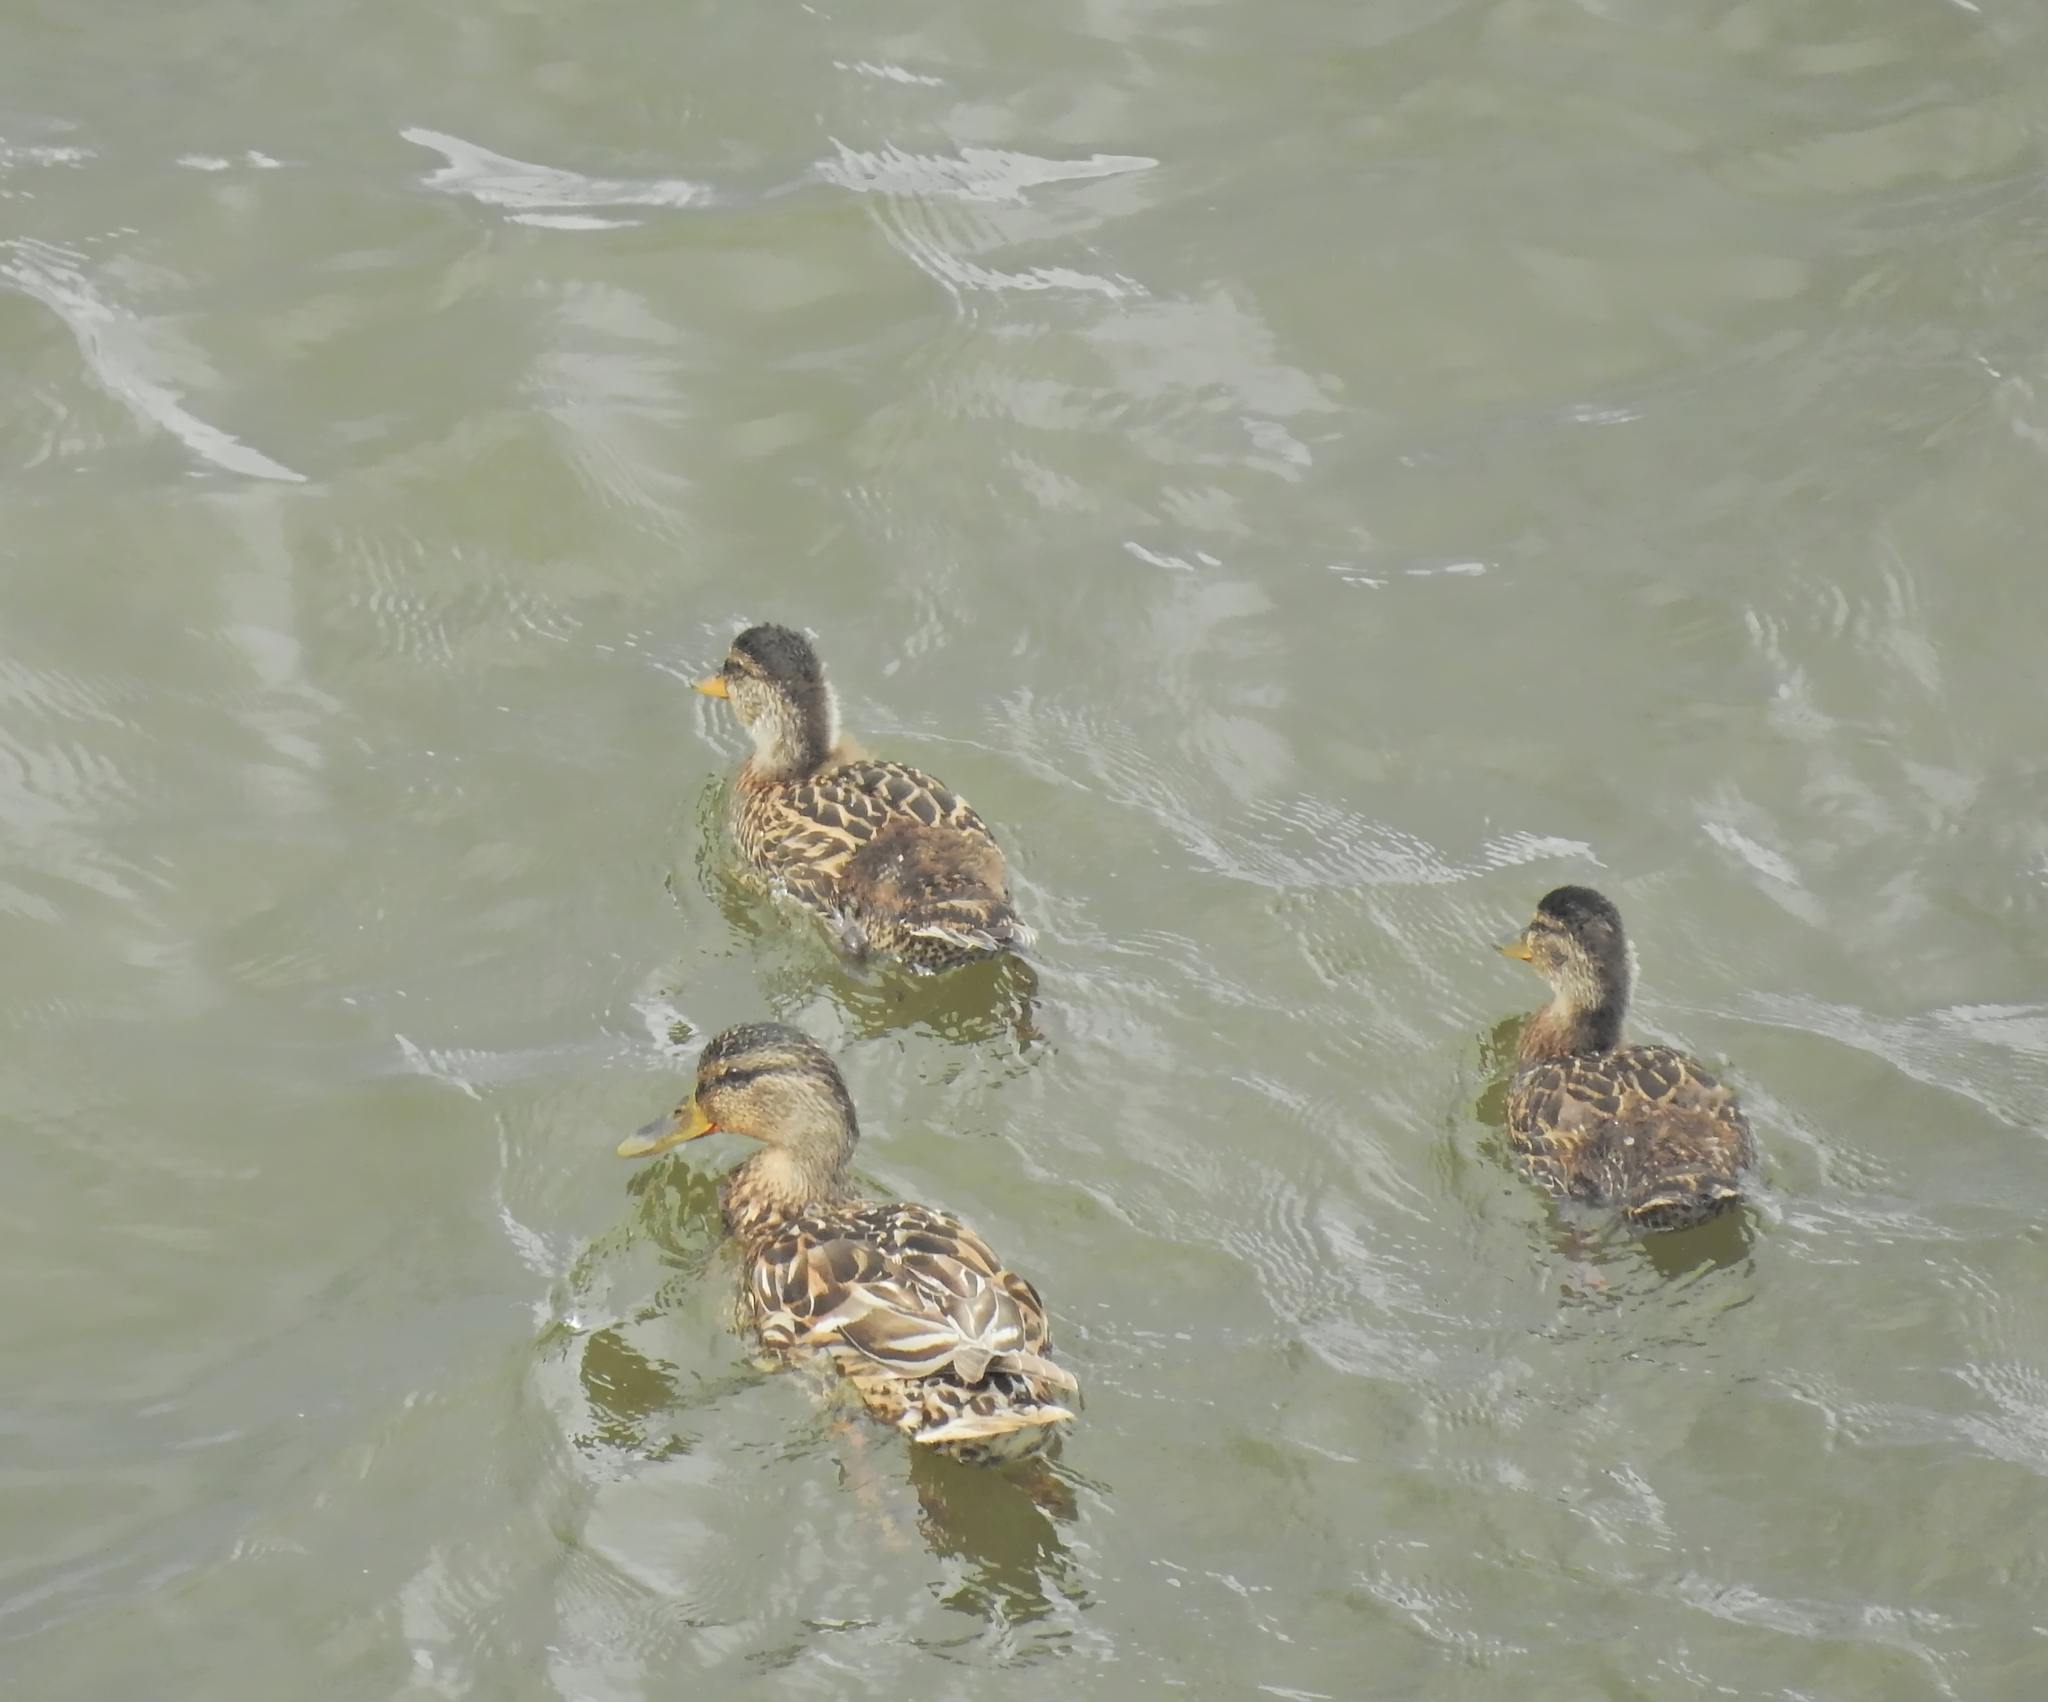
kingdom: Animalia
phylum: Chordata
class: Aves
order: Anseriformes
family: Anatidae
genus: Anas
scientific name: Anas platyrhynchos
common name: Mallard
